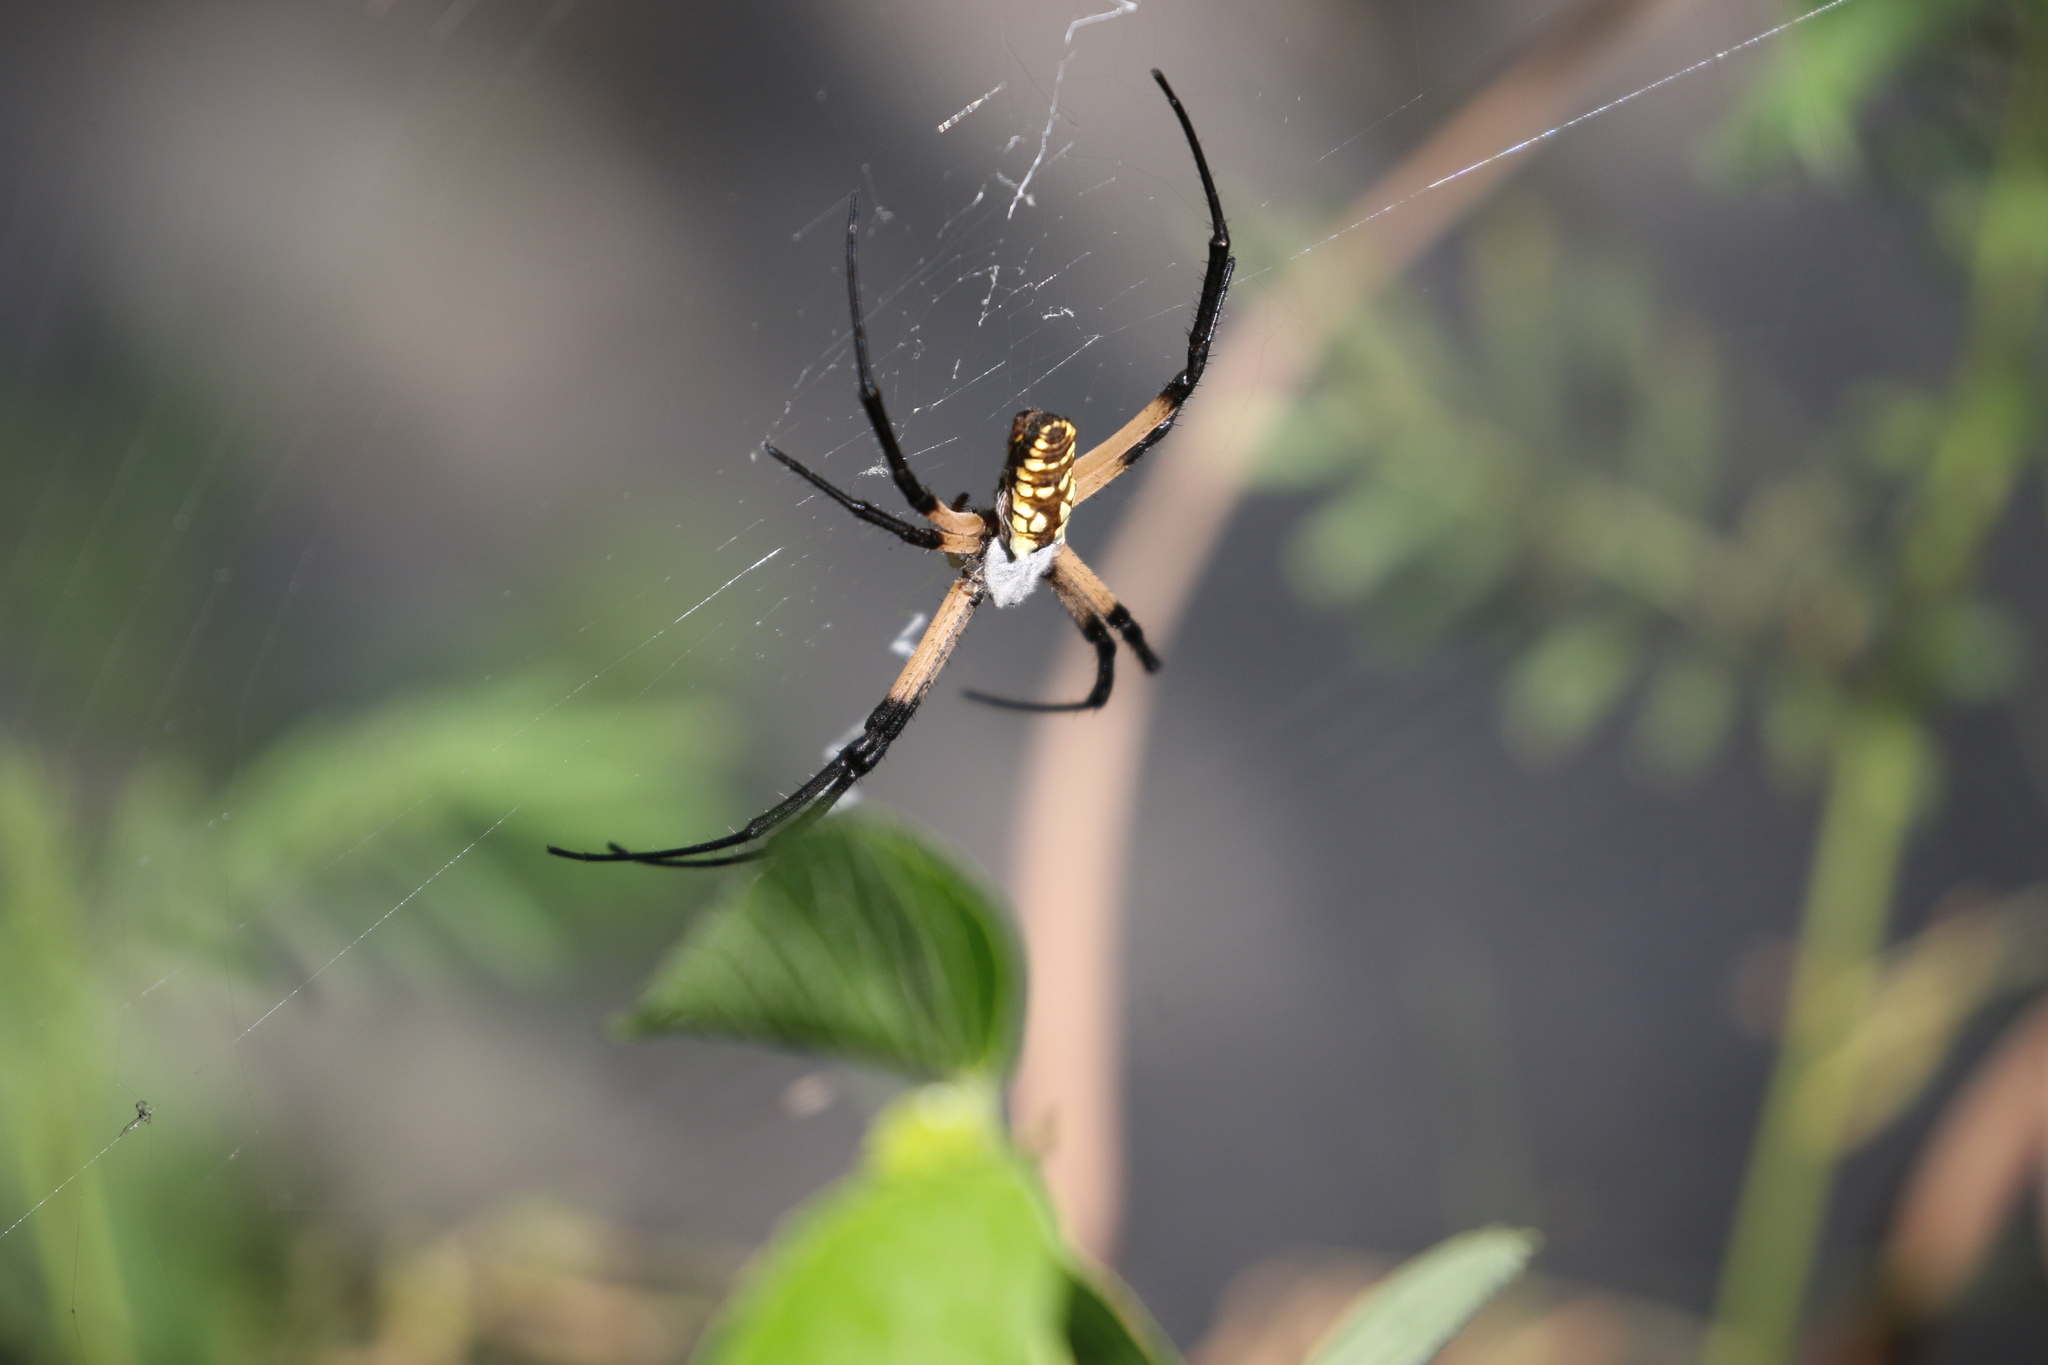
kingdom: Animalia
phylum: Arthropoda
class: Arachnida
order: Araneae
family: Araneidae
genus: Argiope
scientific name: Argiope aurantia
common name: Orb weavers
